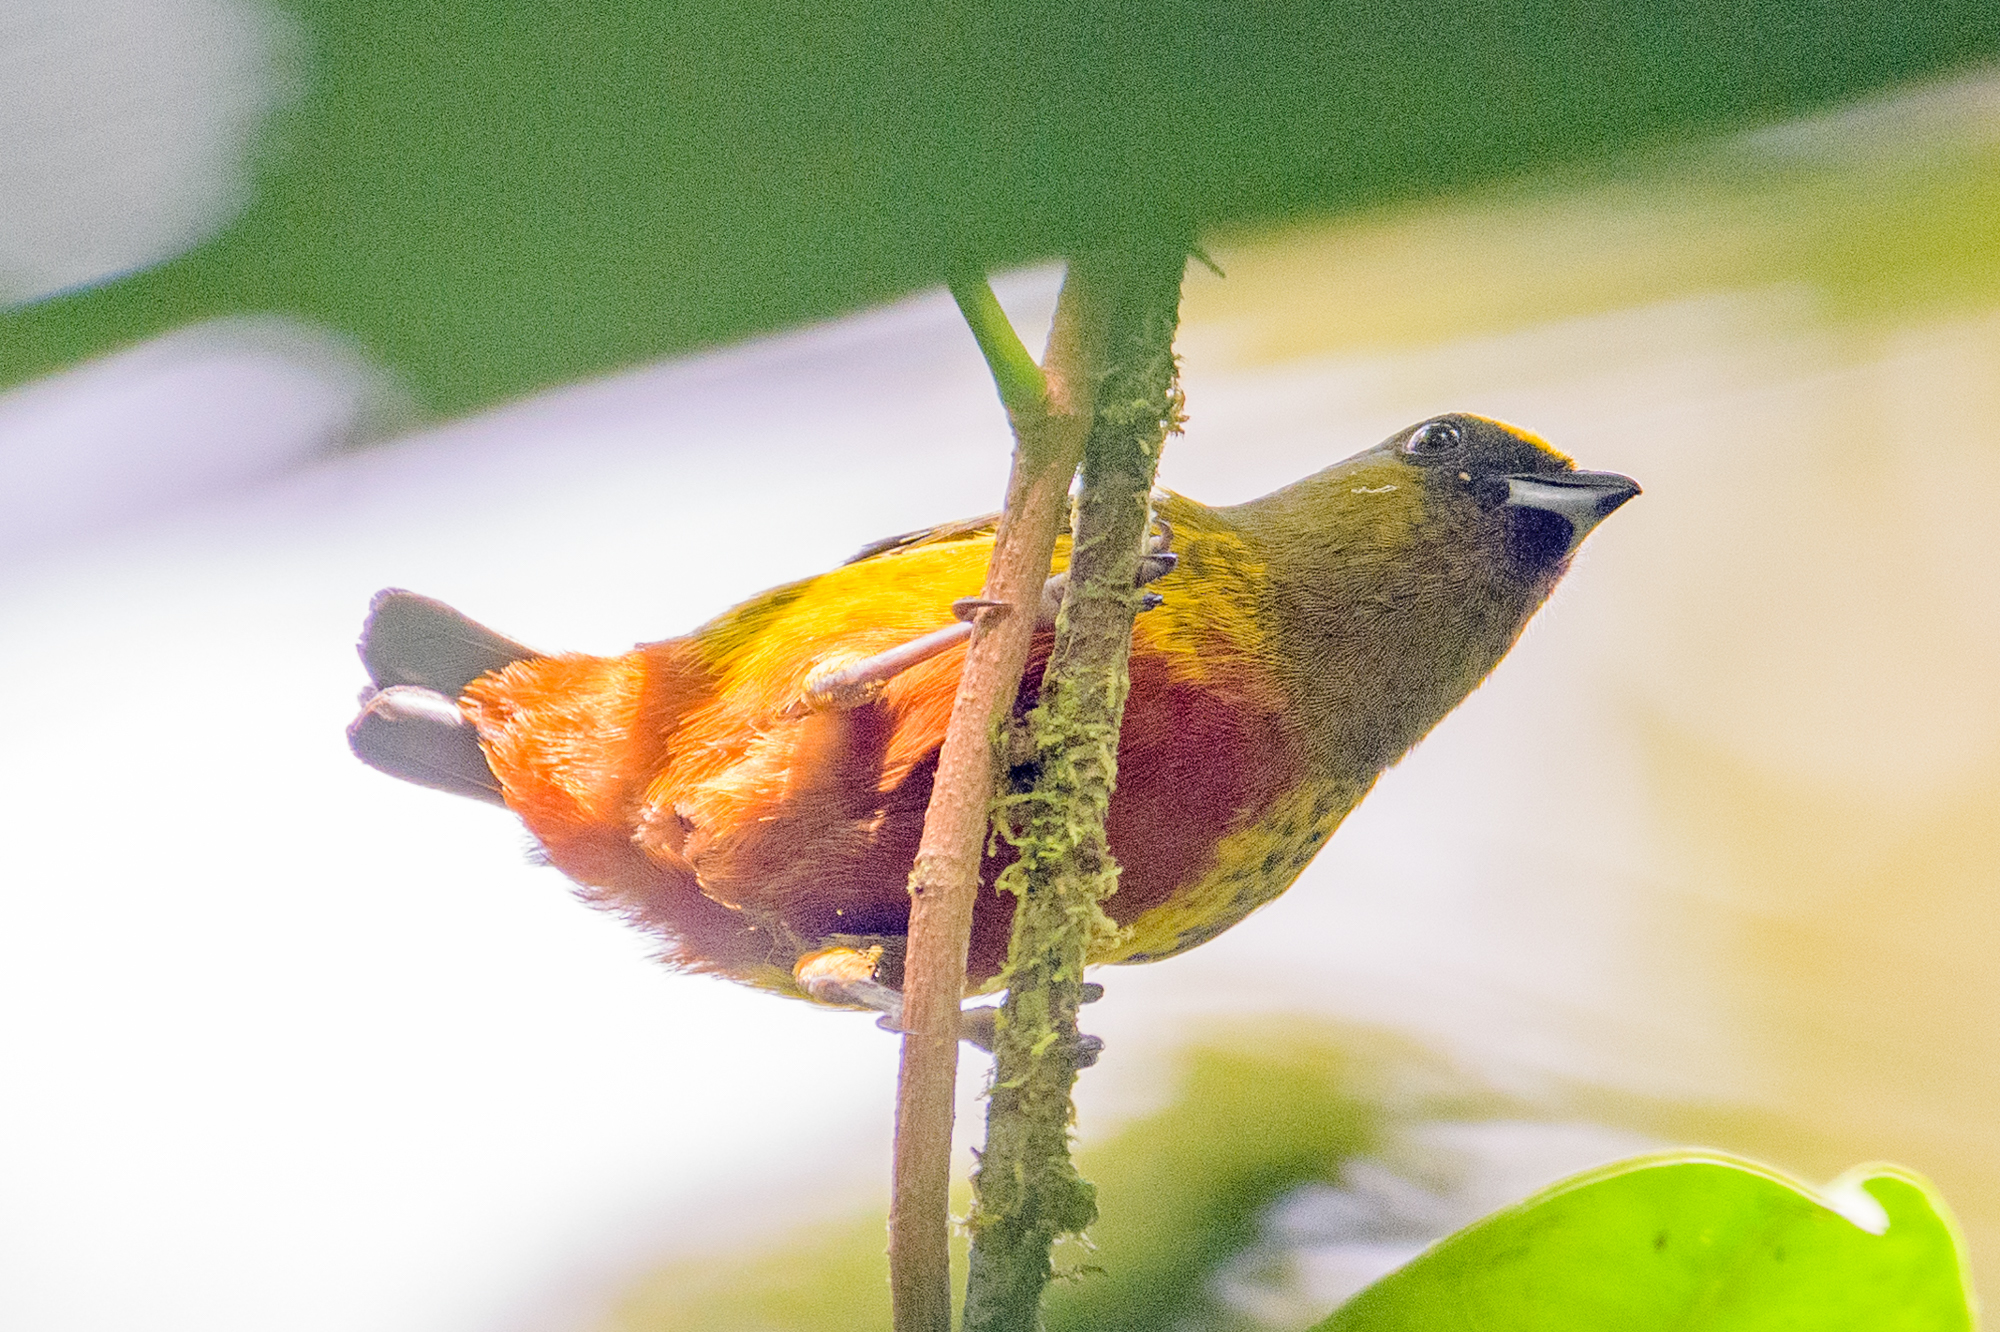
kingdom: Animalia
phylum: Chordata
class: Aves
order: Passeriformes
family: Fringillidae
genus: Euphonia
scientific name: Euphonia gouldi
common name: Olive-backed euphonia
